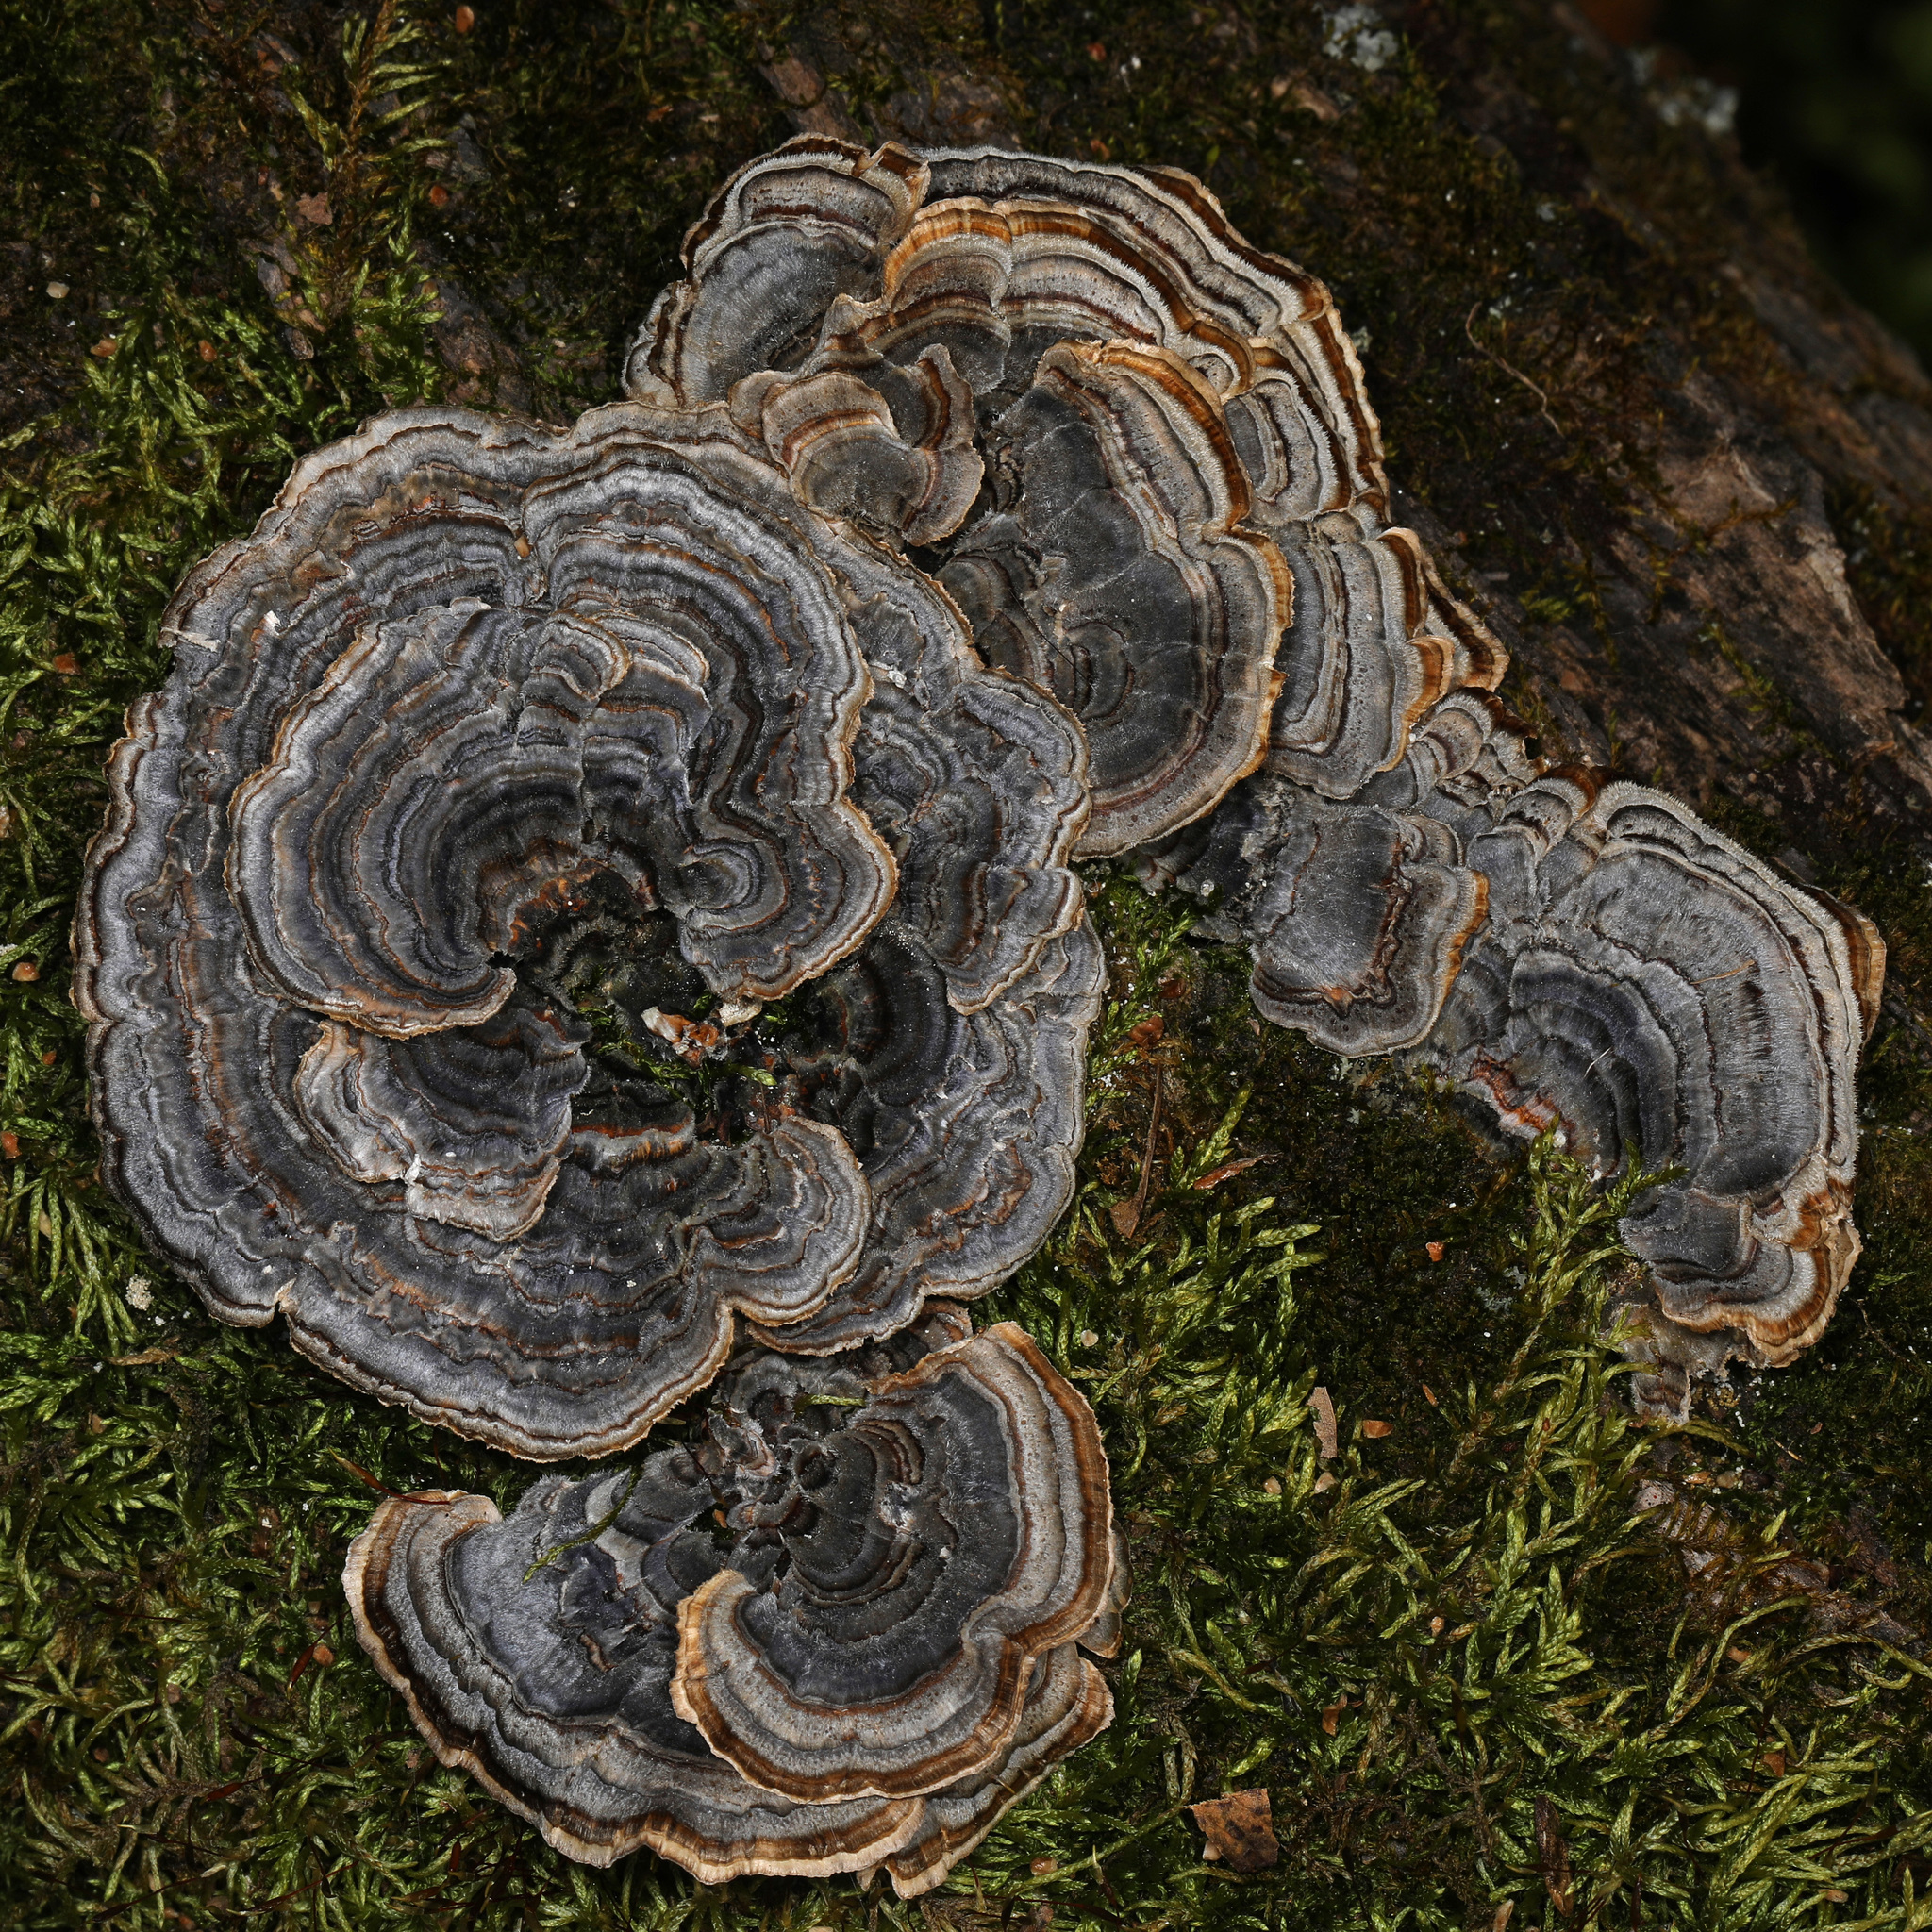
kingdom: Fungi
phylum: Basidiomycota
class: Agaricomycetes
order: Polyporales
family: Polyporaceae
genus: Trametes
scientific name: Trametes versicolor
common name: Turkeytail
